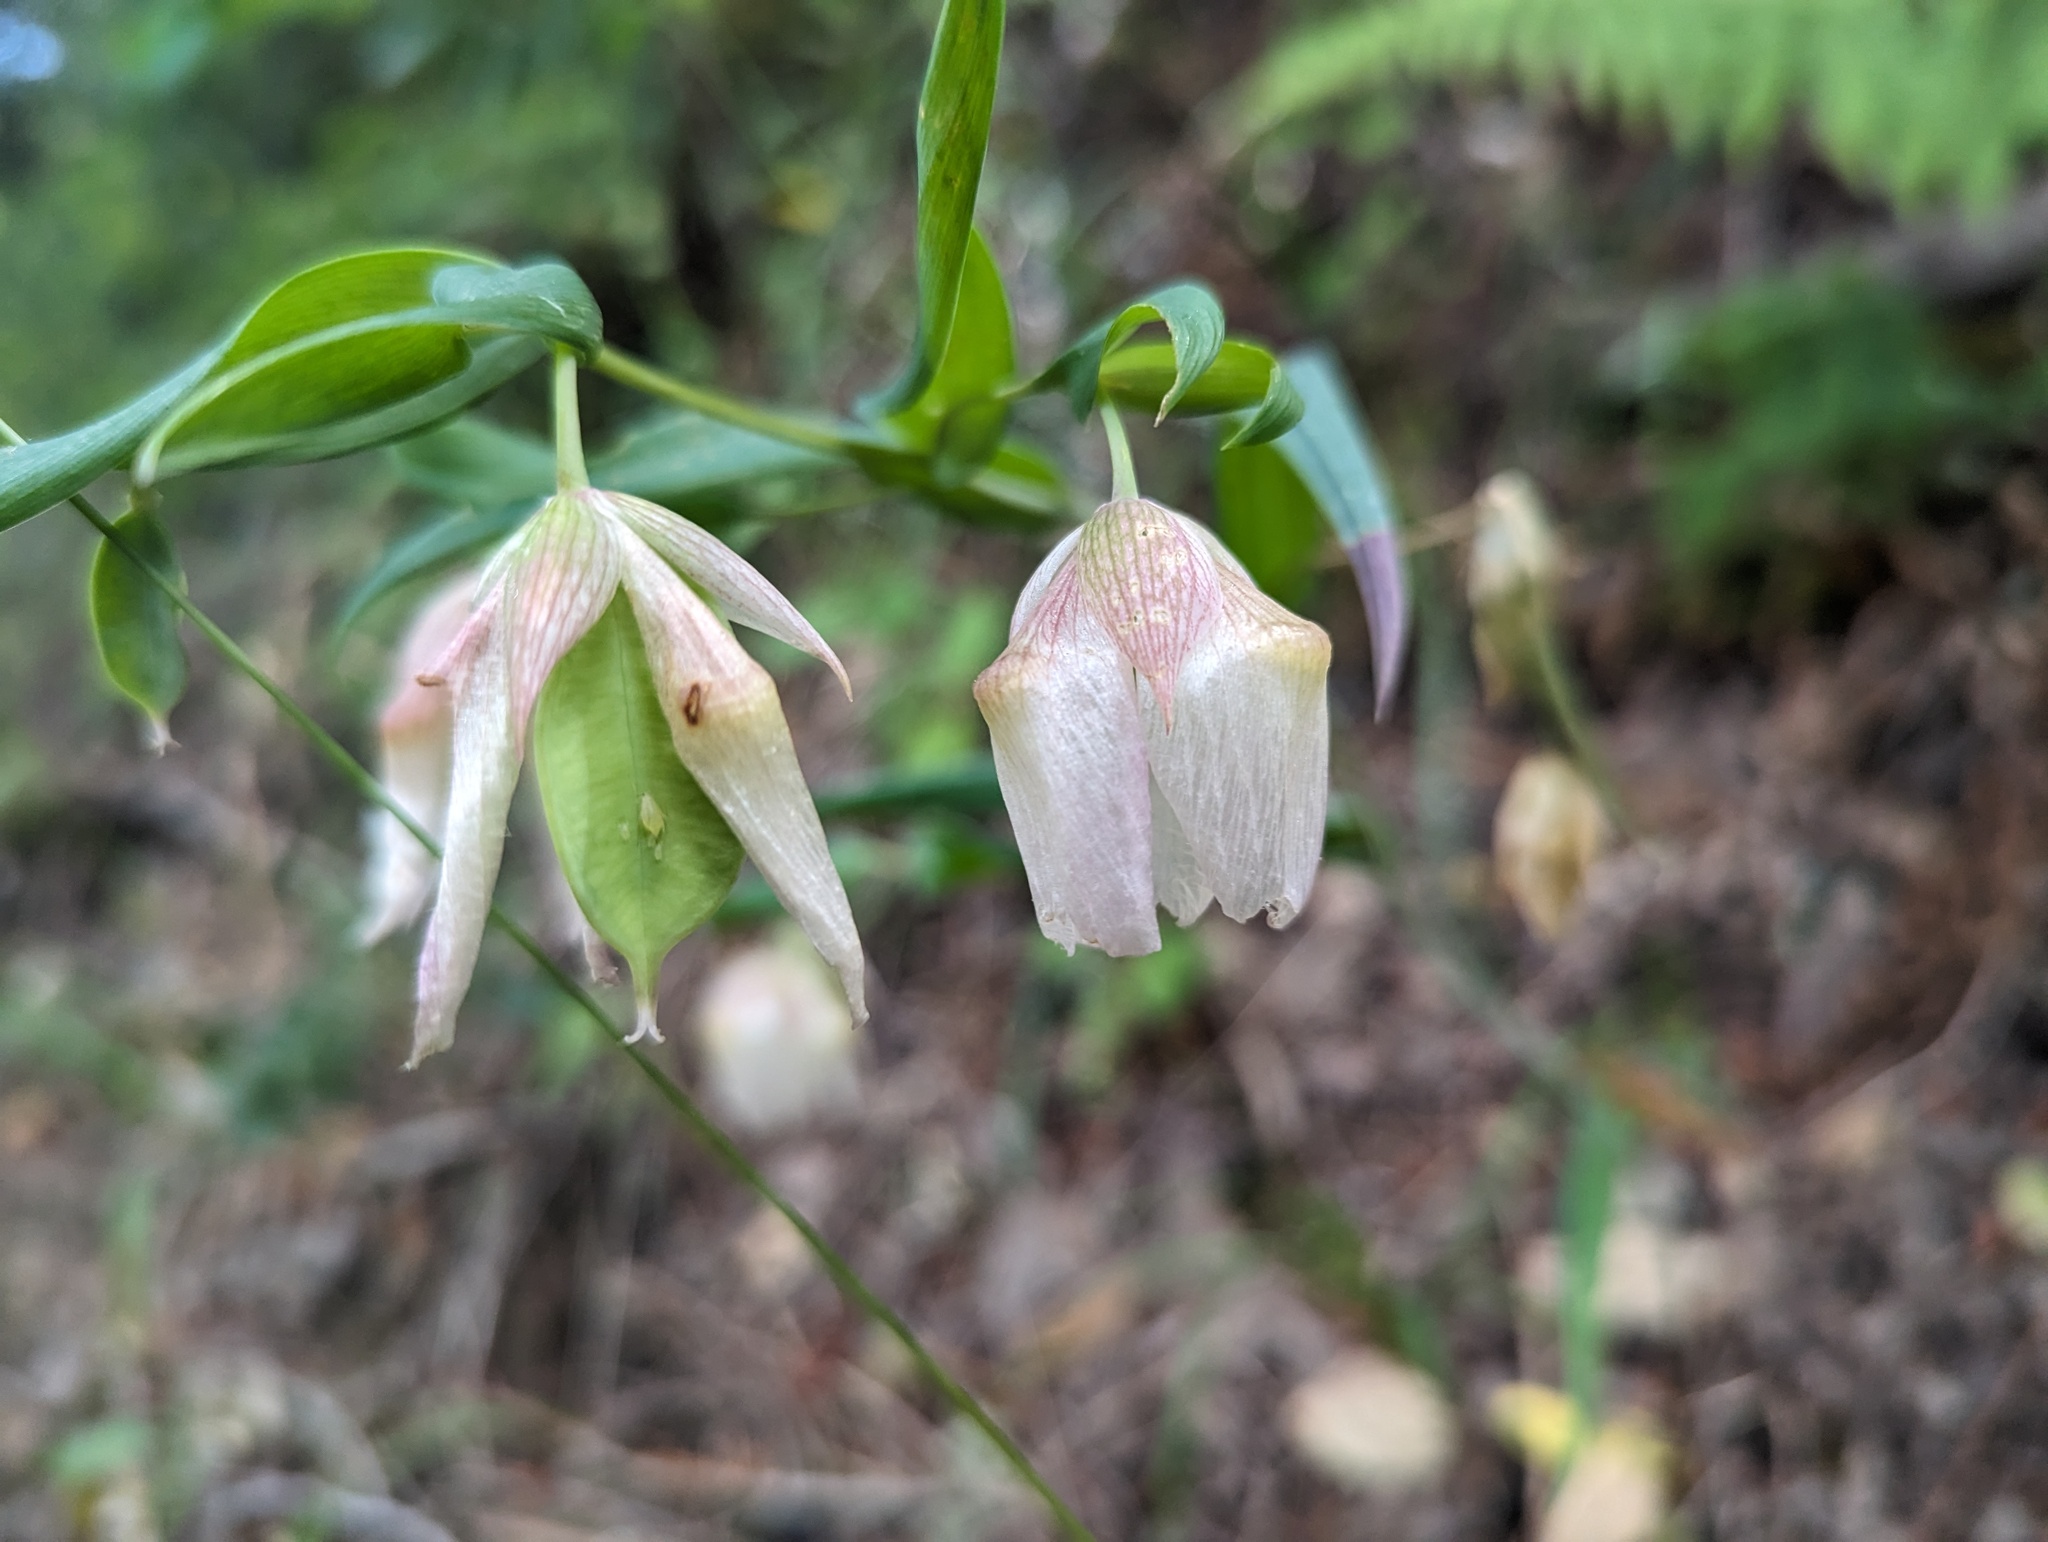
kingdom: Plantae
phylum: Tracheophyta
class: Liliopsida
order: Liliales
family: Liliaceae
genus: Calochortus
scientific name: Calochortus albus
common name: Fairy-lantern
